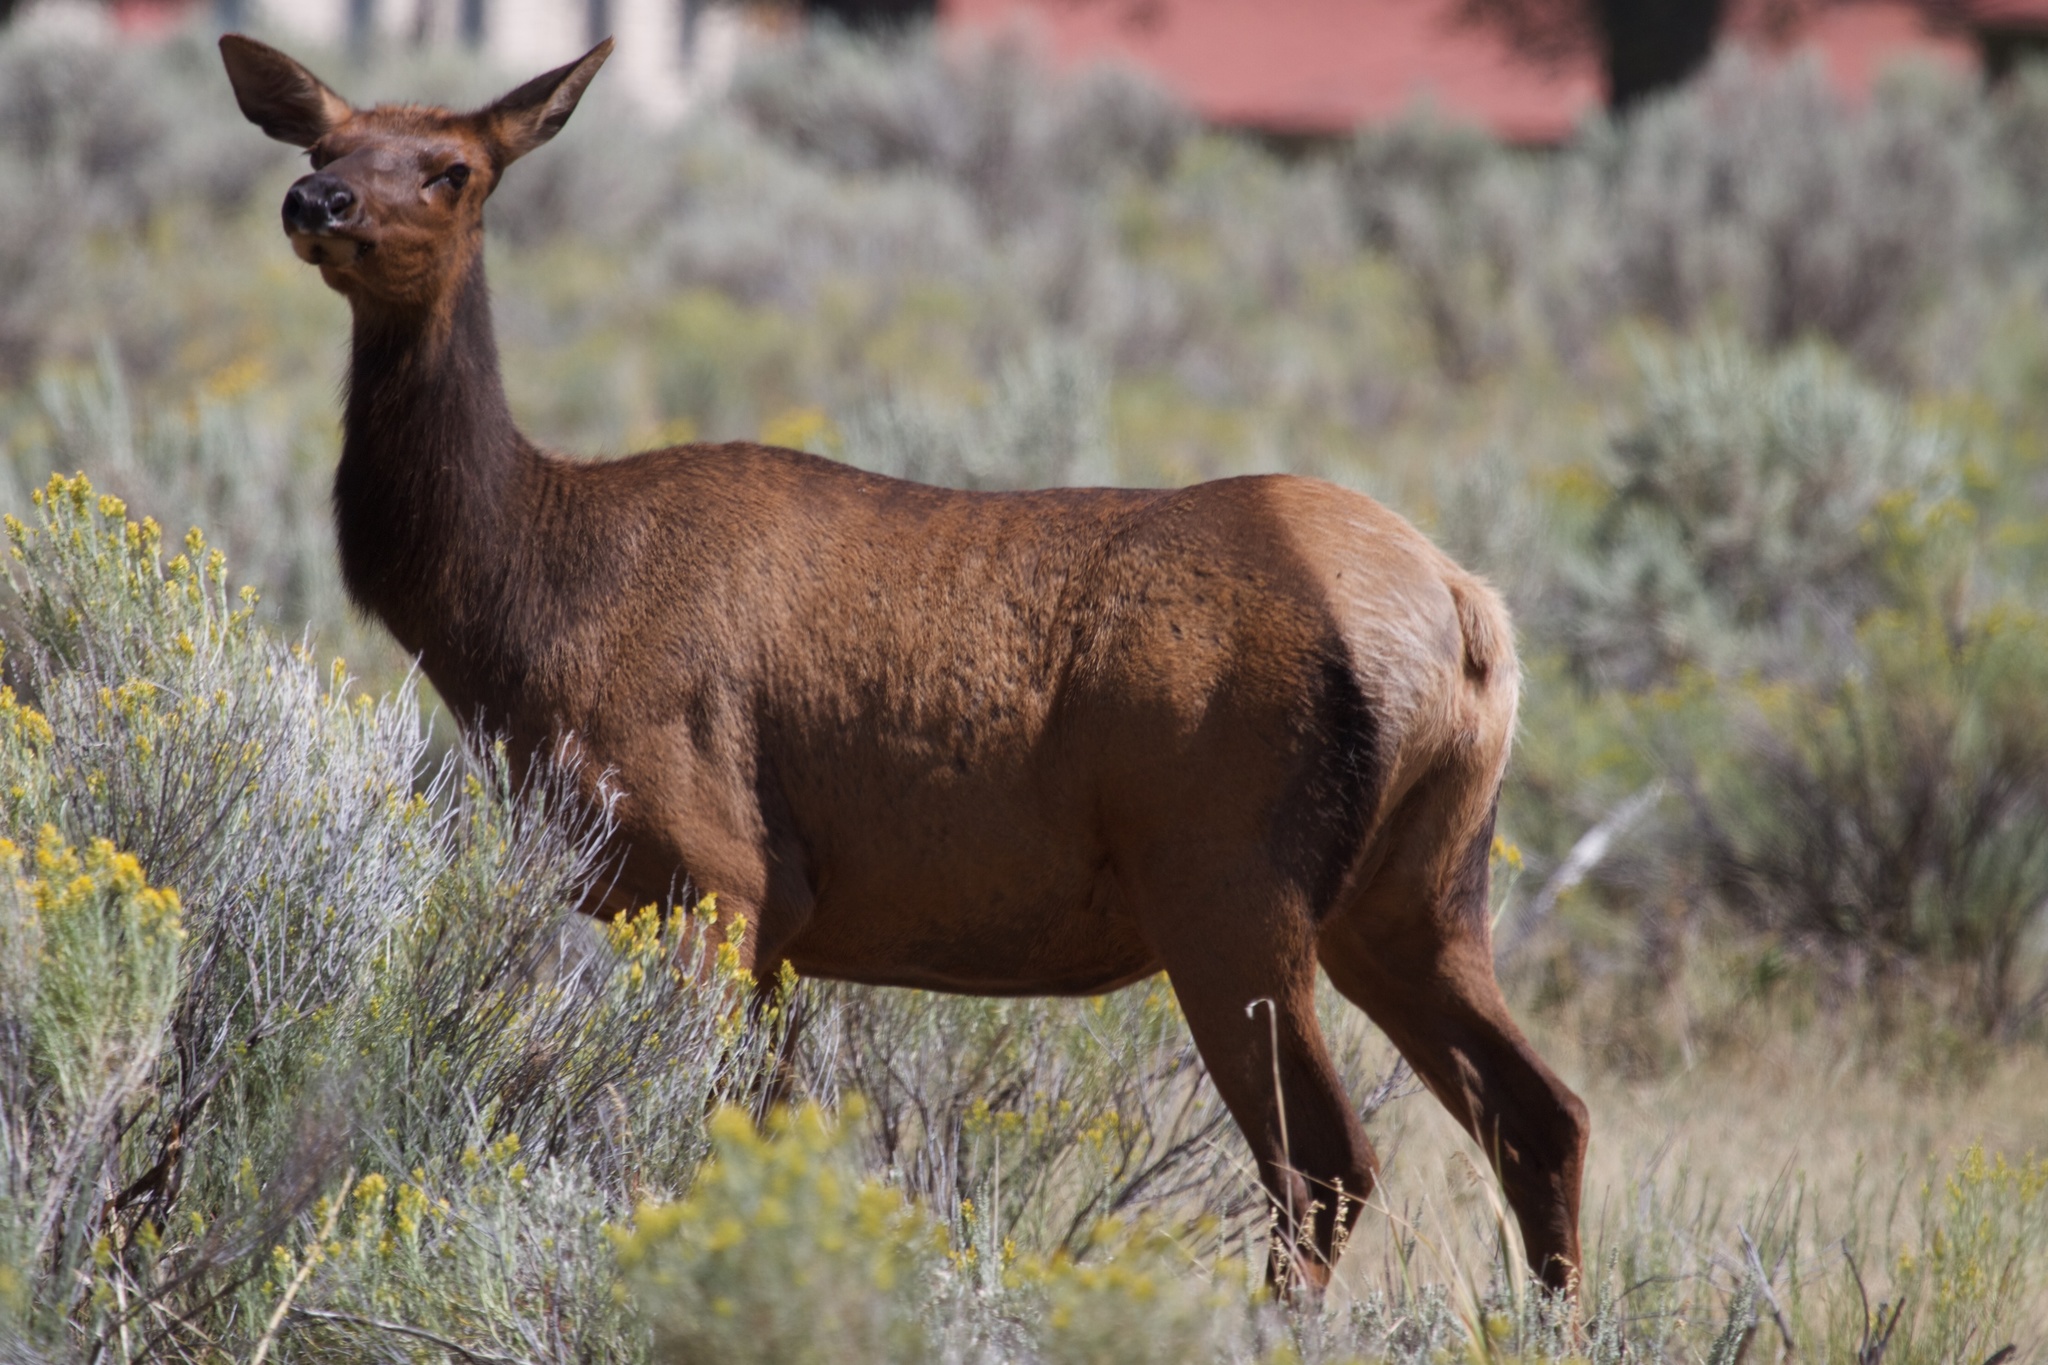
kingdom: Animalia
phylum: Chordata
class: Mammalia
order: Artiodactyla
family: Cervidae
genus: Cervus
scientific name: Cervus elaphus
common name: Red deer
